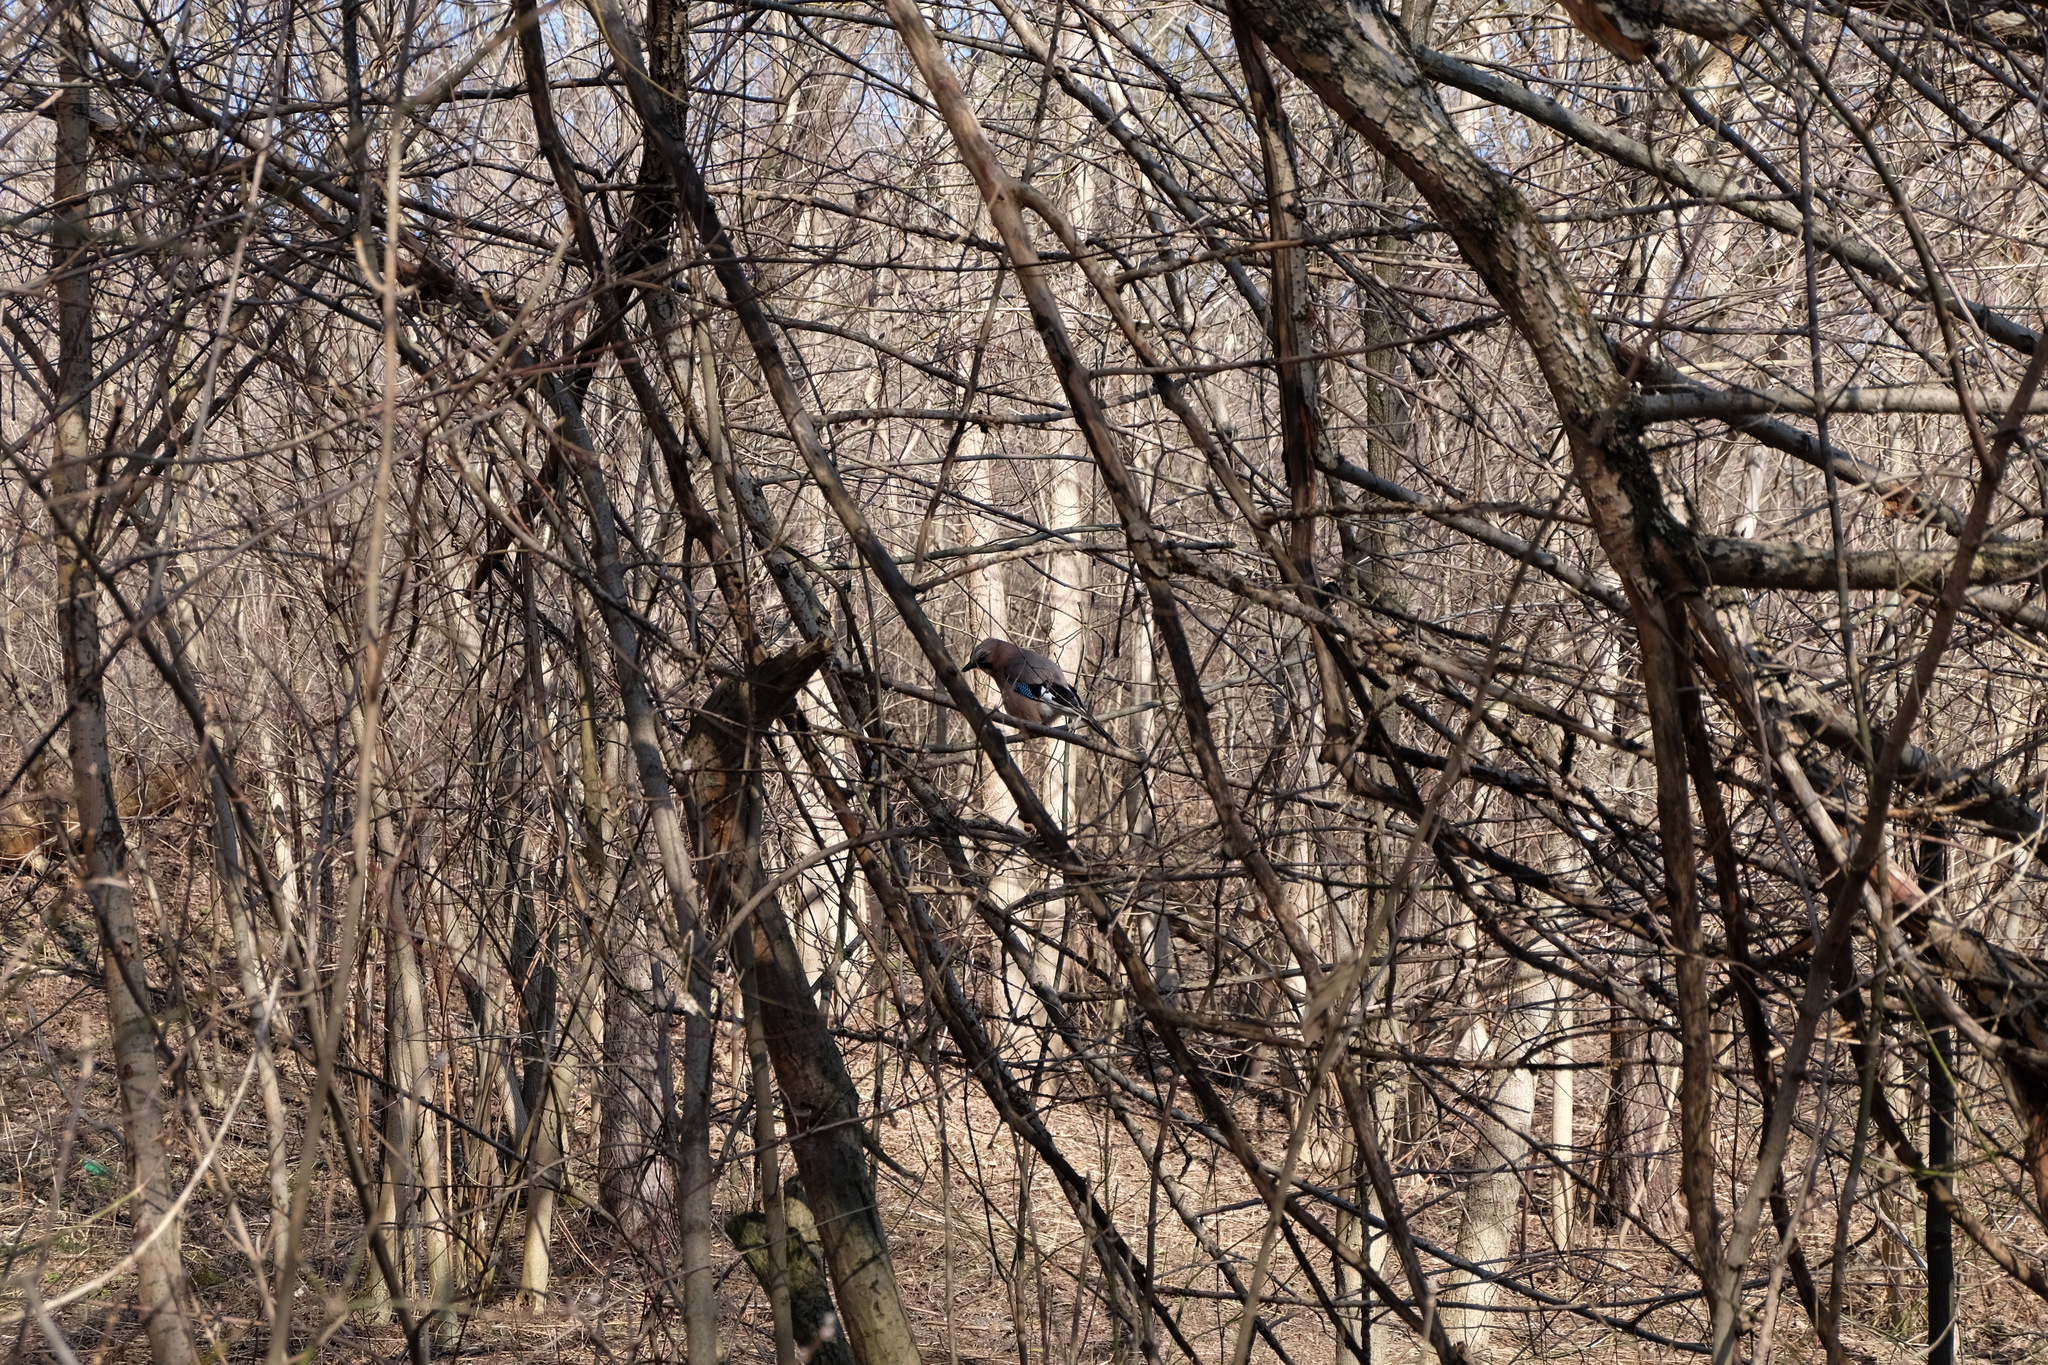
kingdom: Animalia
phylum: Chordata
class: Aves
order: Passeriformes
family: Corvidae
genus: Garrulus
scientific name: Garrulus glandarius
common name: Eurasian jay
